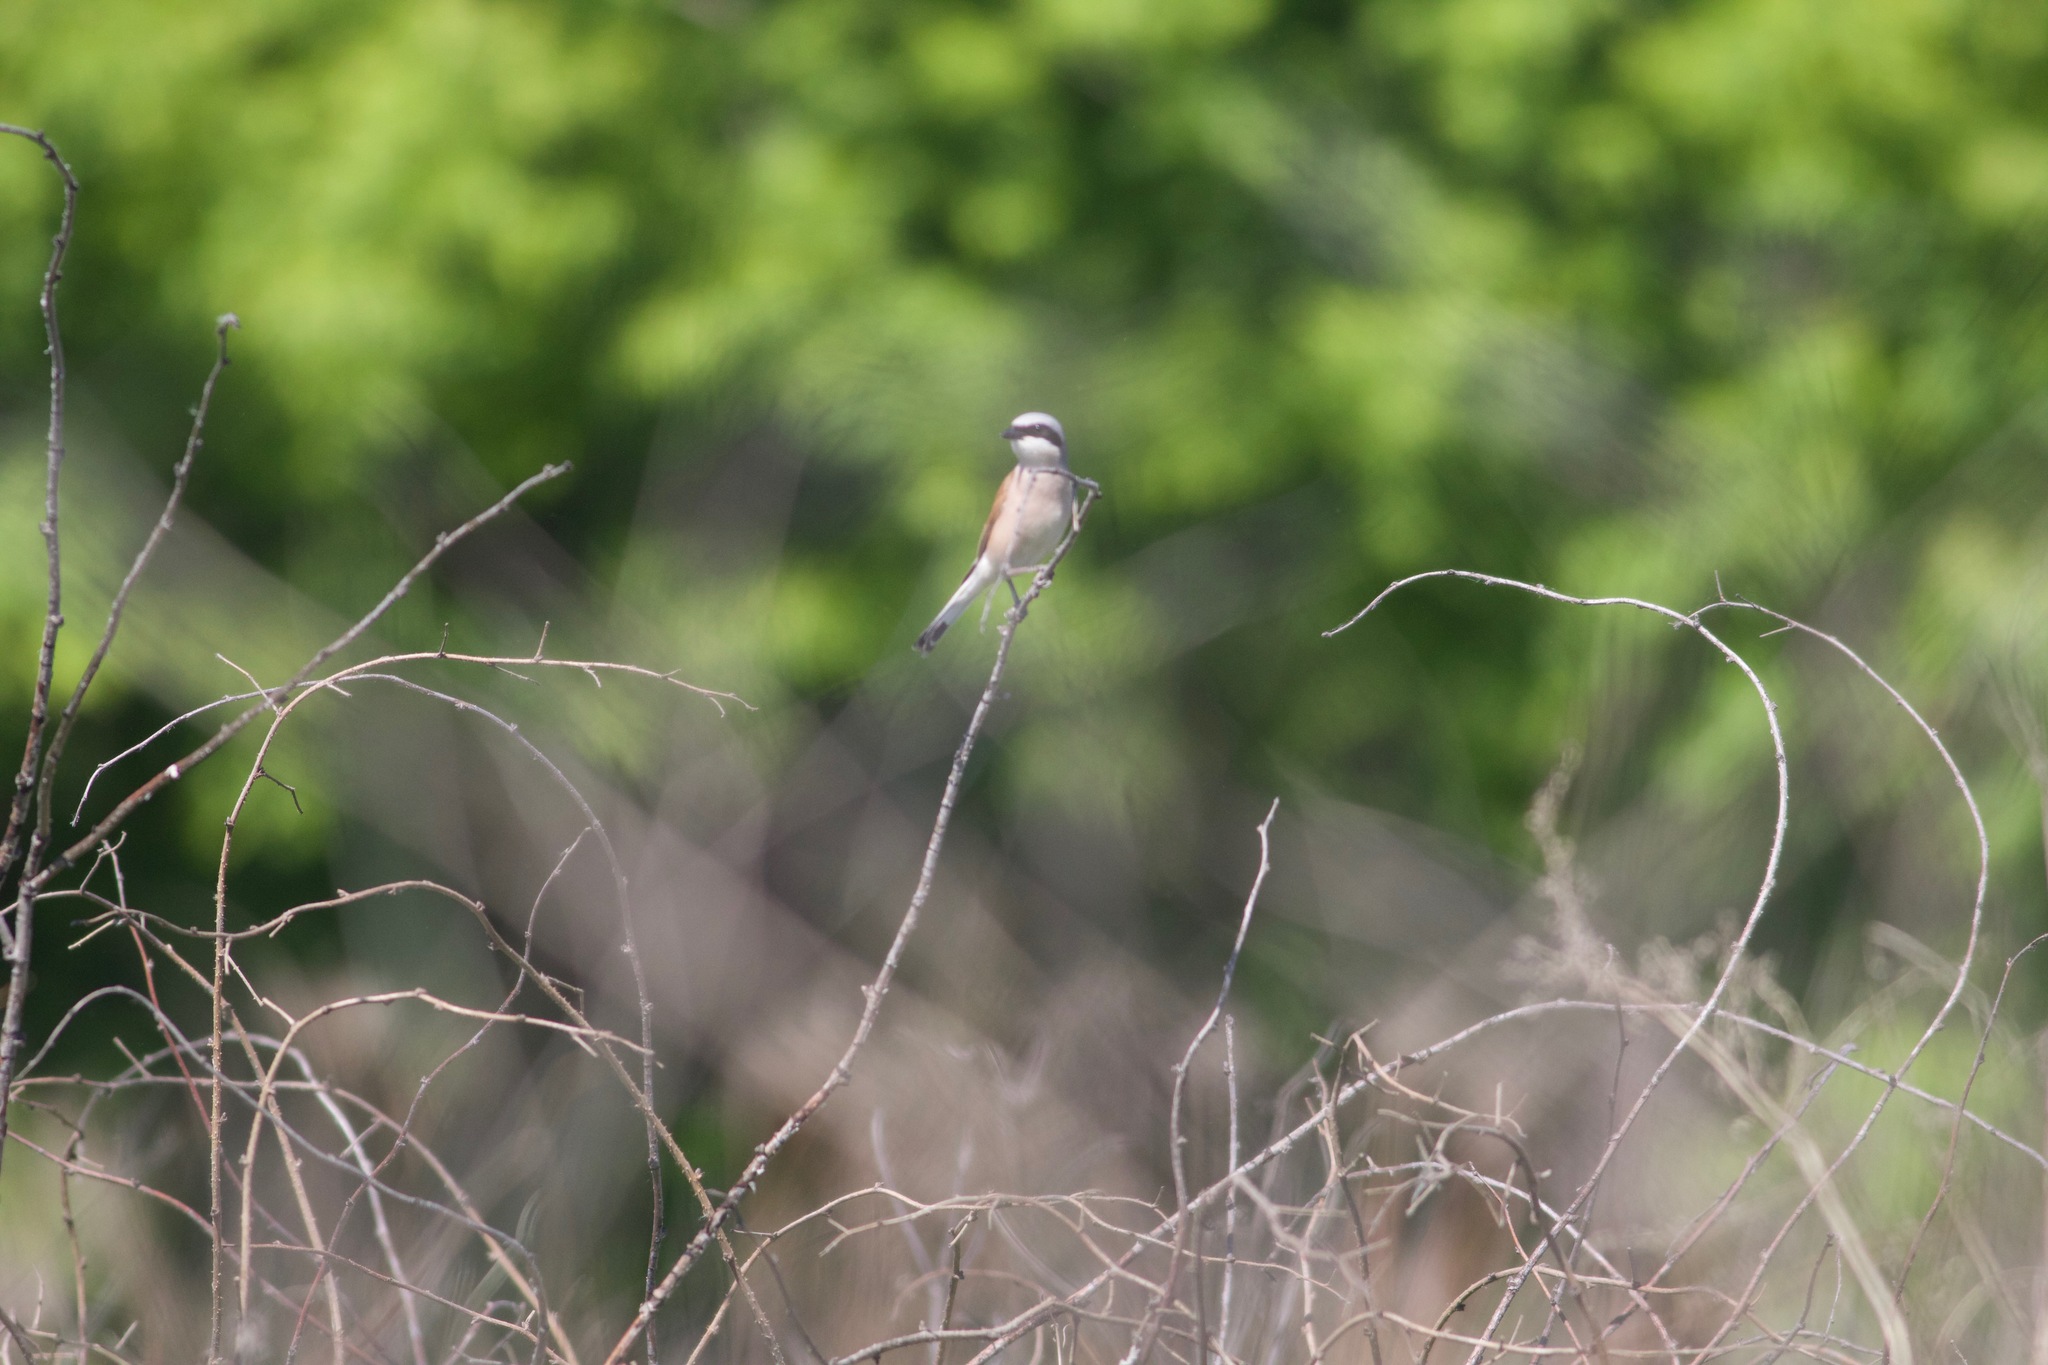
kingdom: Animalia
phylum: Chordata
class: Aves
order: Passeriformes
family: Laniidae
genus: Lanius
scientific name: Lanius collurio
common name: Red-backed shrike
